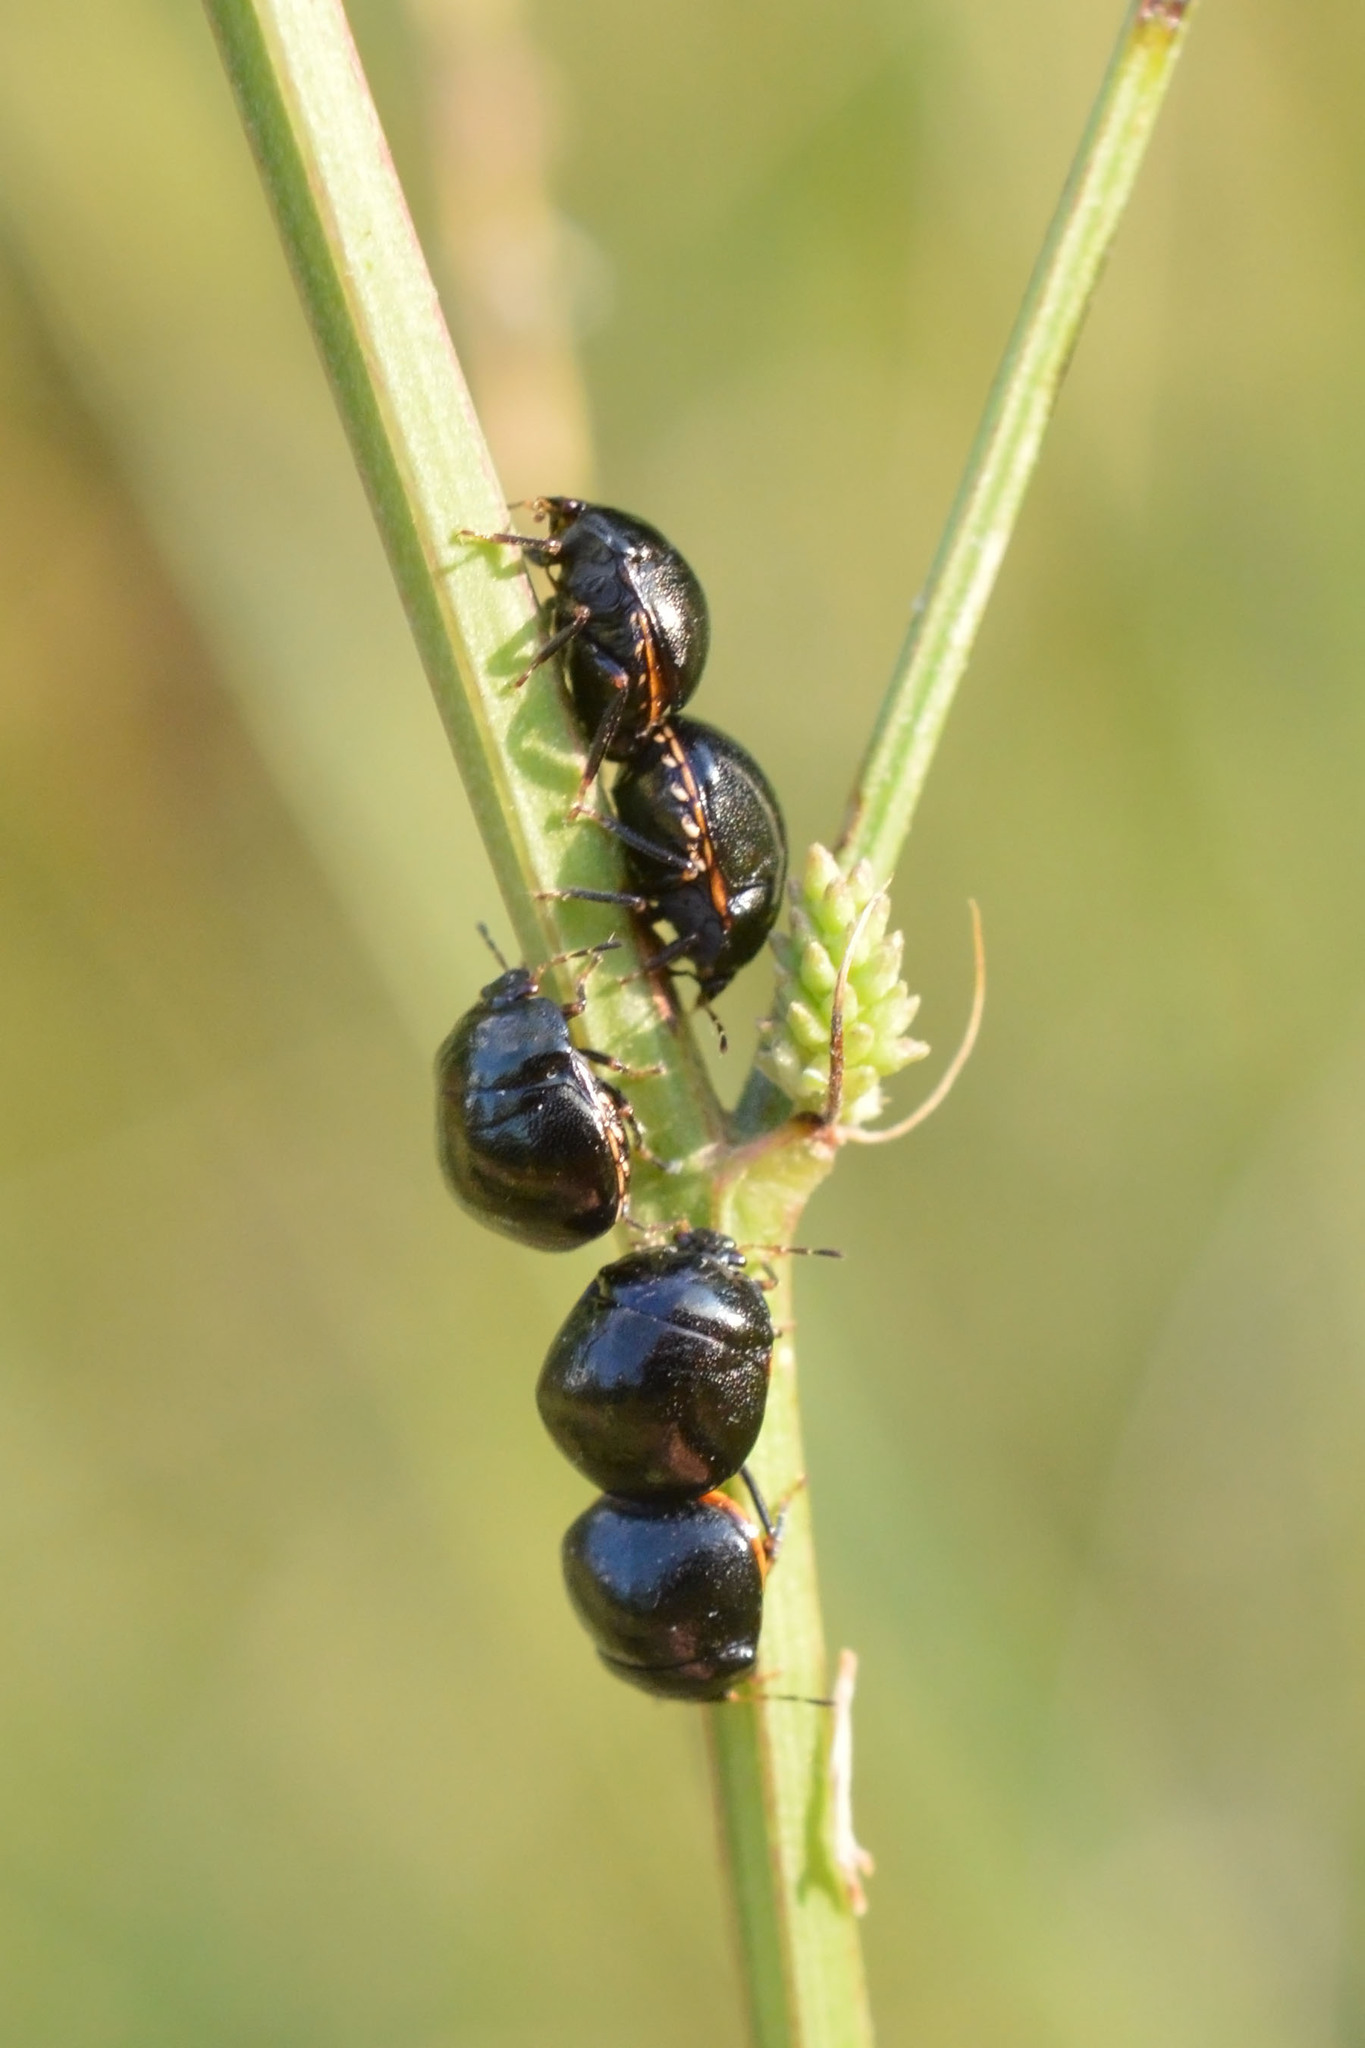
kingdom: Animalia
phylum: Arthropoda
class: Insecta
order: Hemiptera
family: Plataspidae
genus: Coptosoma
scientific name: Coptosoma scutellatum
